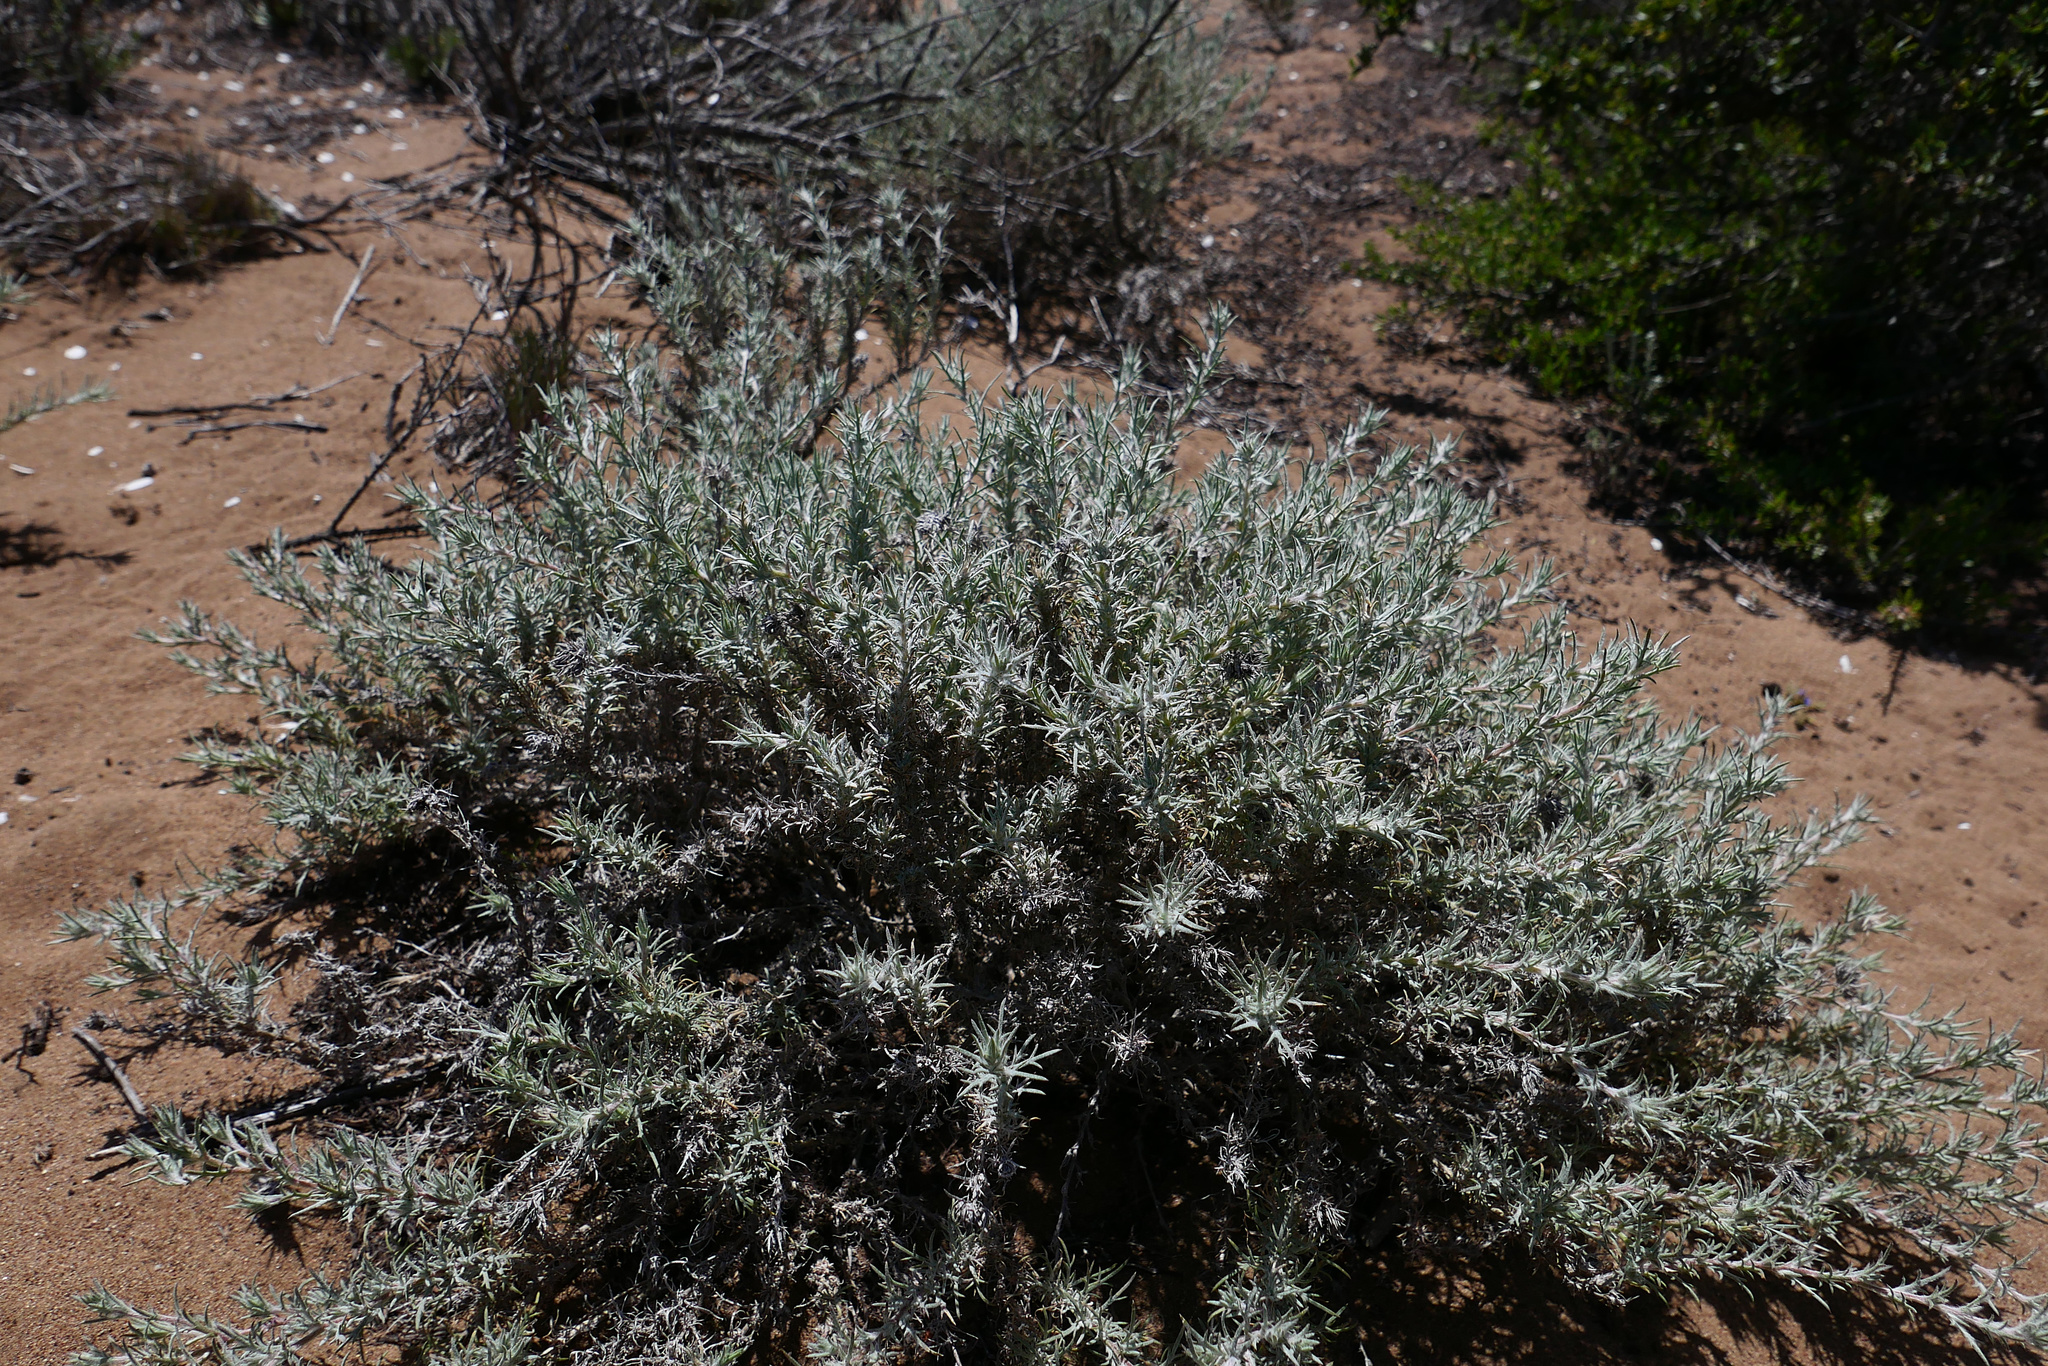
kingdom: Plantae
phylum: Tracheophyta
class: Magnoliopsida
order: Ericales
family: Polemoniaceae
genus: Eriastrum
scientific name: Eriastrum densifolium
